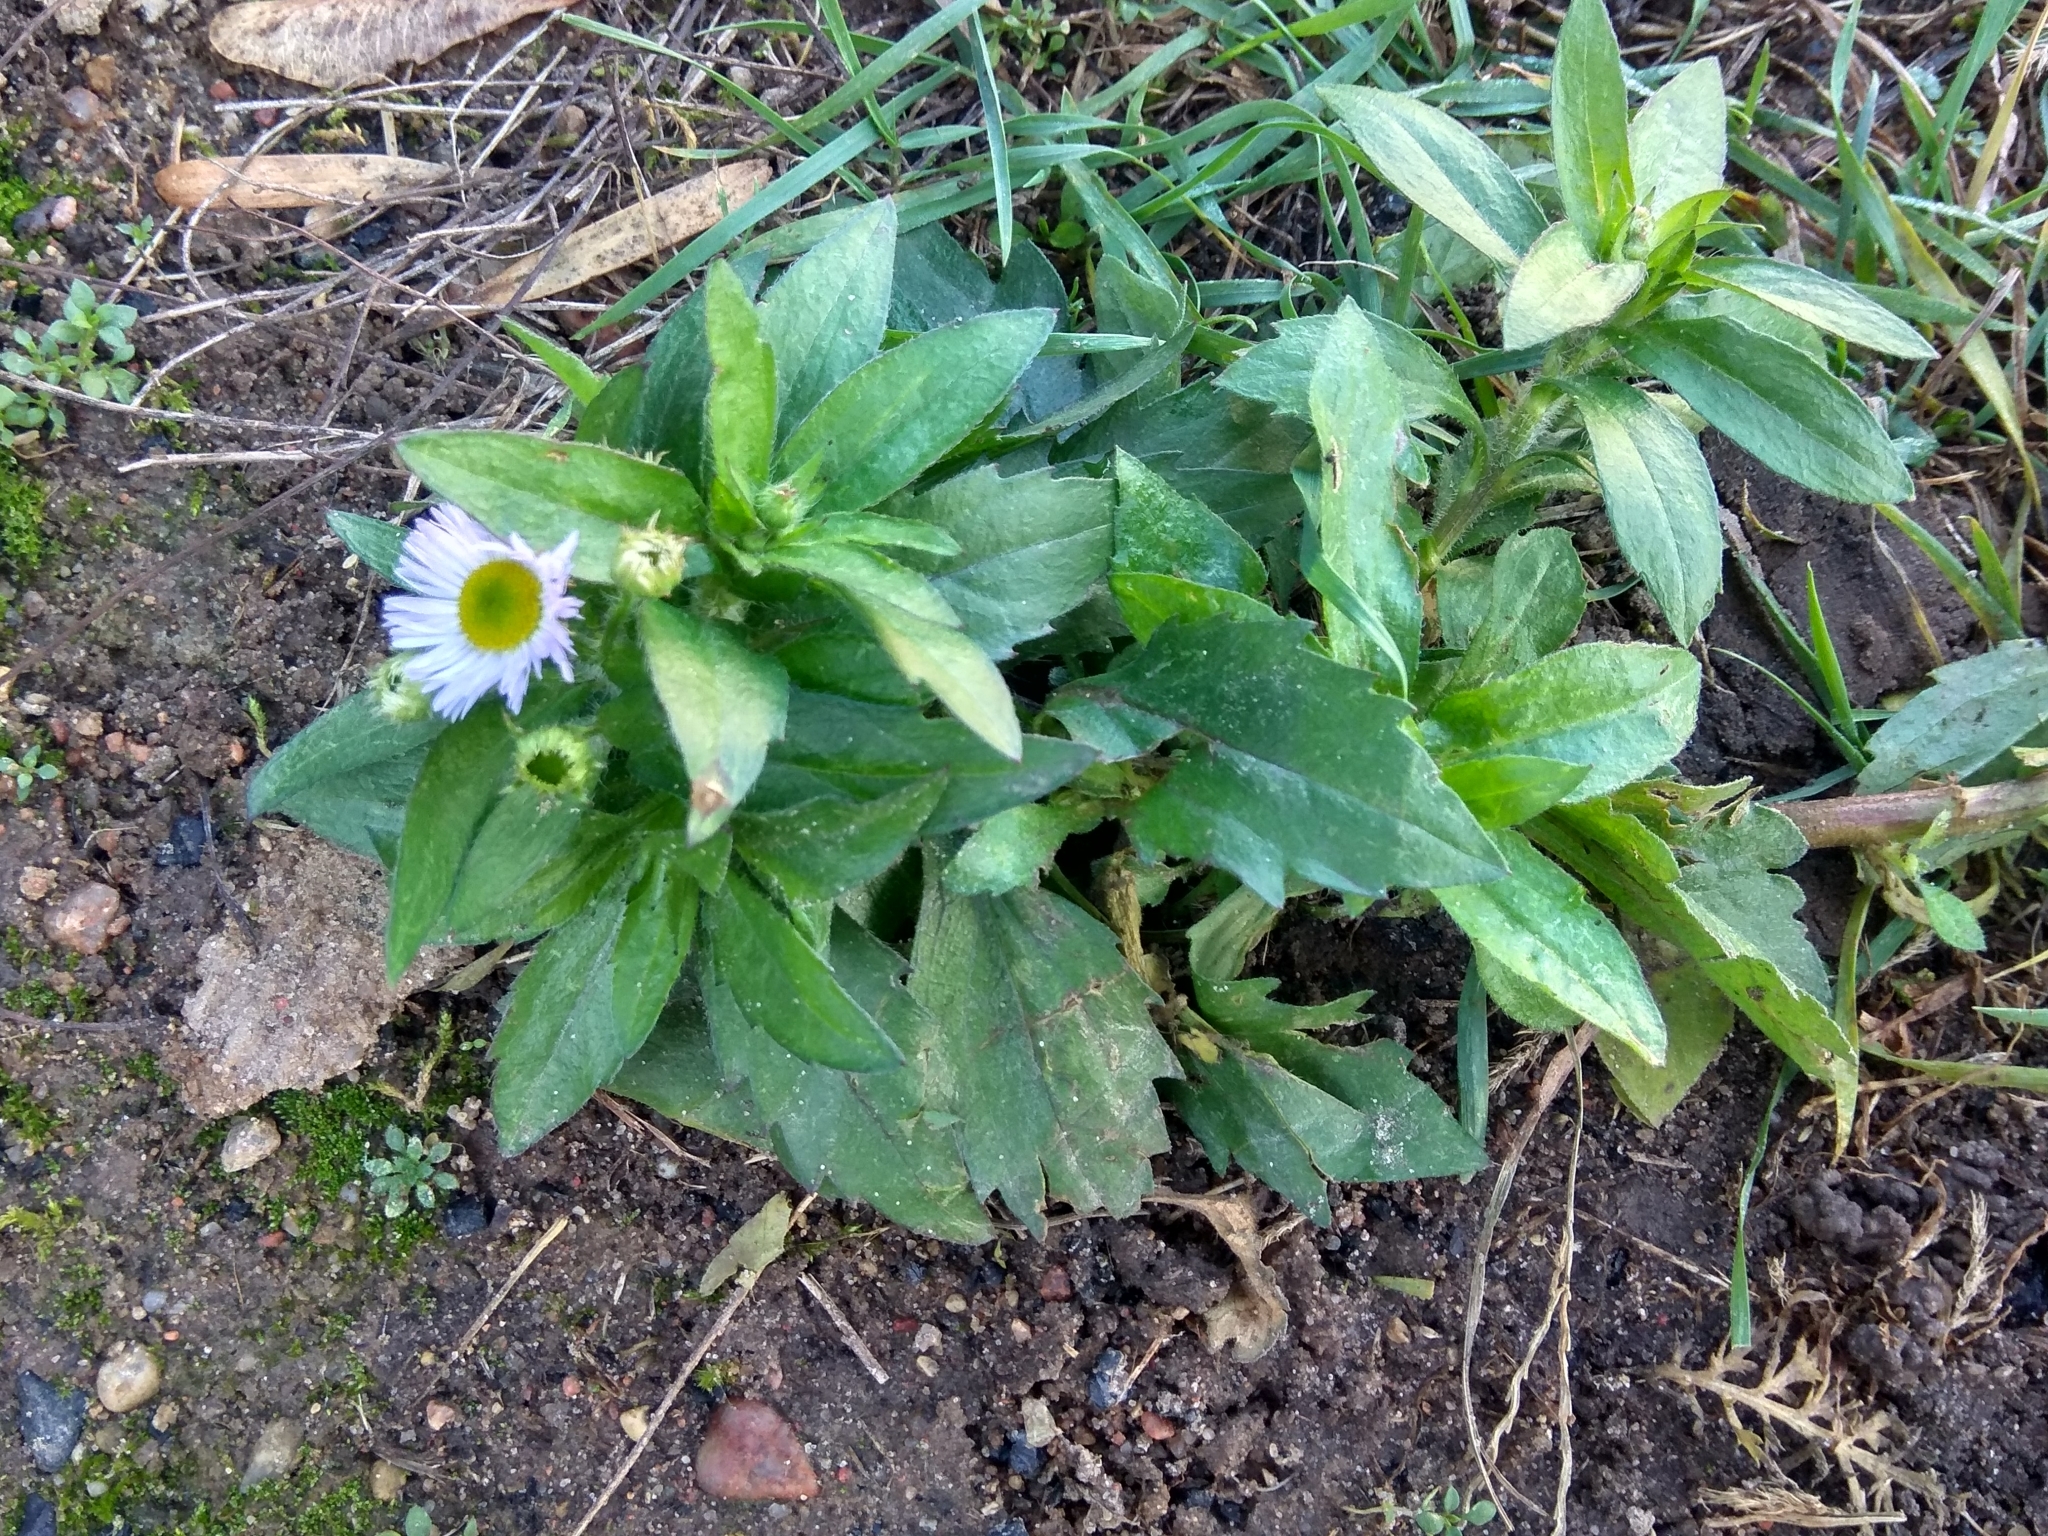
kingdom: Plantae
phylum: Tracheophyta
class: Magnoliopsida
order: Asterales
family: Asteraceae
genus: Erigeron
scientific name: Erigeron annuus
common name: Tall fleabane
